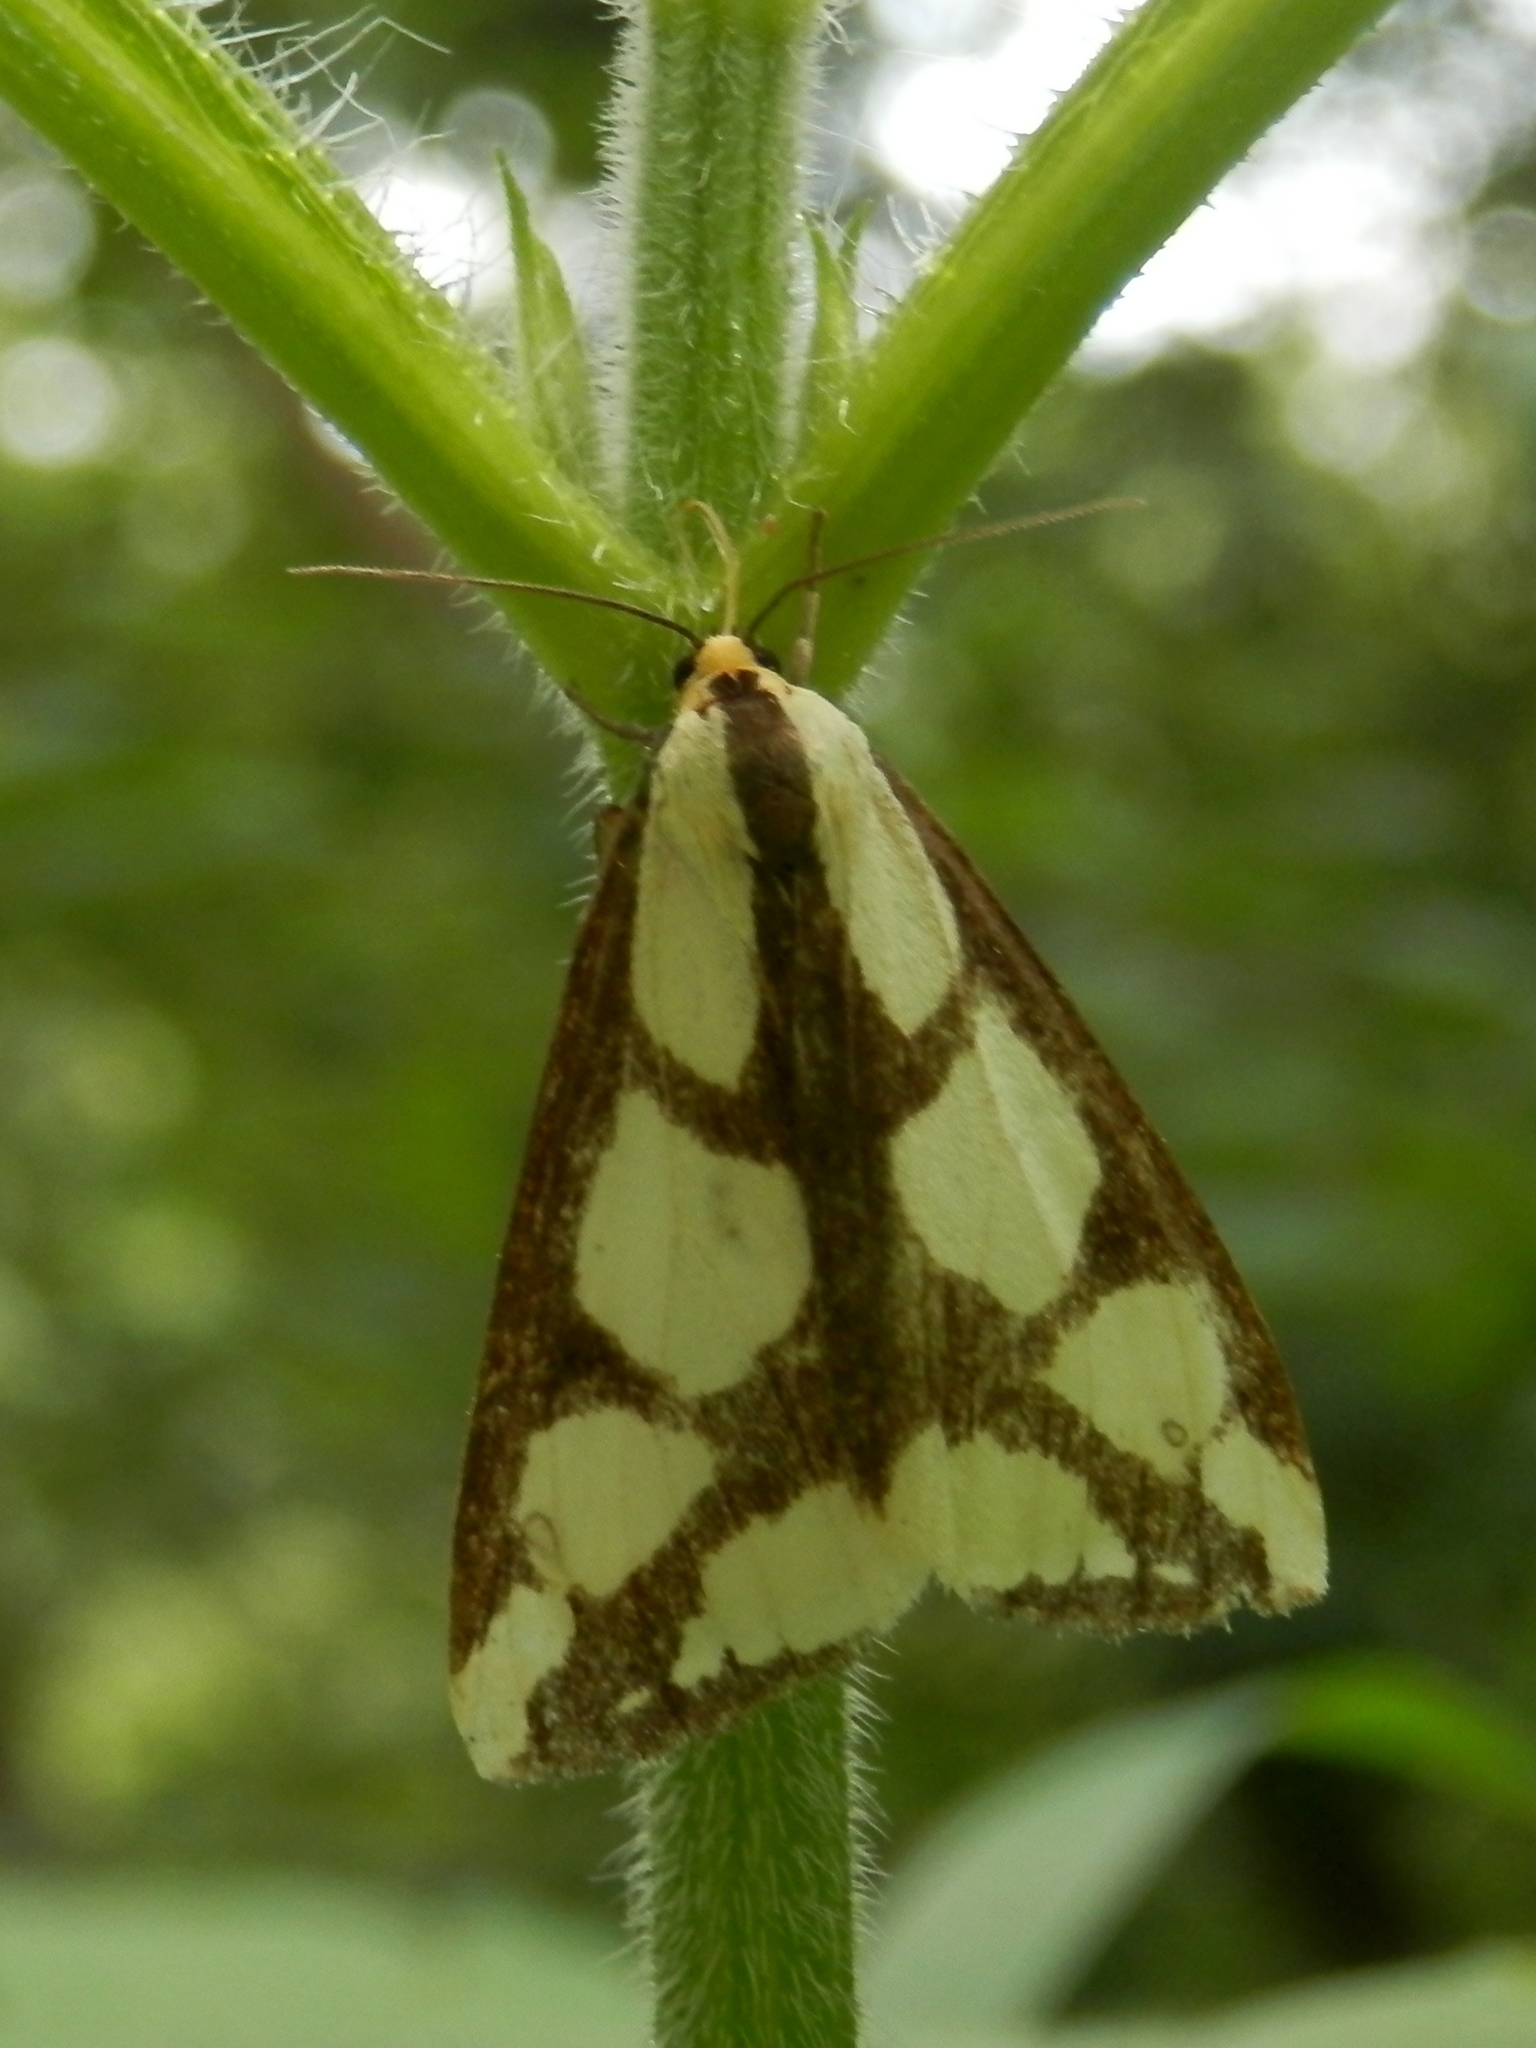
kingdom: Animalia
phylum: Arthropoda
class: Insecta
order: Lepidoptera
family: Erebidae
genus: Haploa
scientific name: Haploa lecontei
